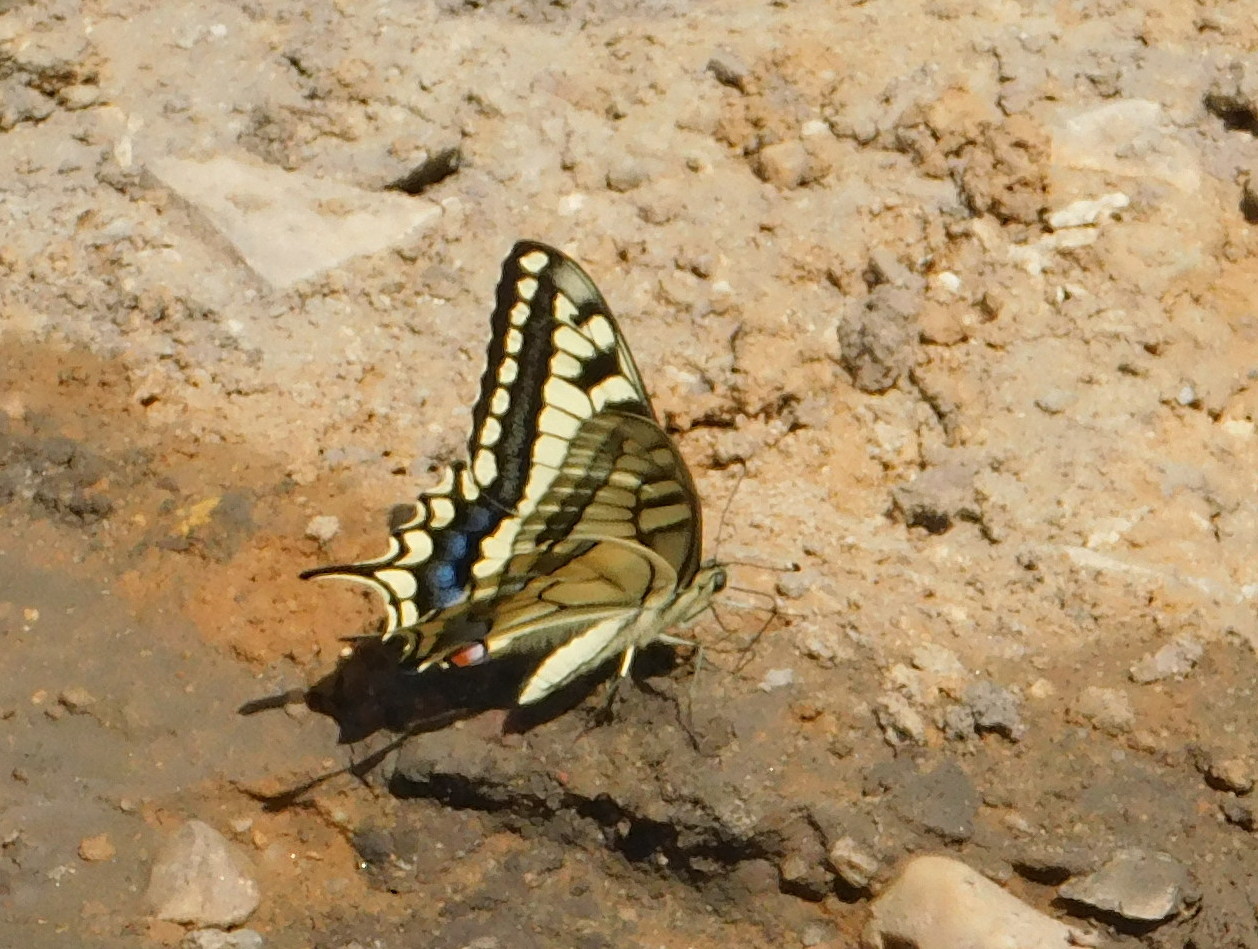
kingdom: Animalia
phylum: Arthropoda
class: Insecta
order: Lepidoptera
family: Papilionidae
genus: Papilio
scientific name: Papilio machaon
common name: Swallowtail
